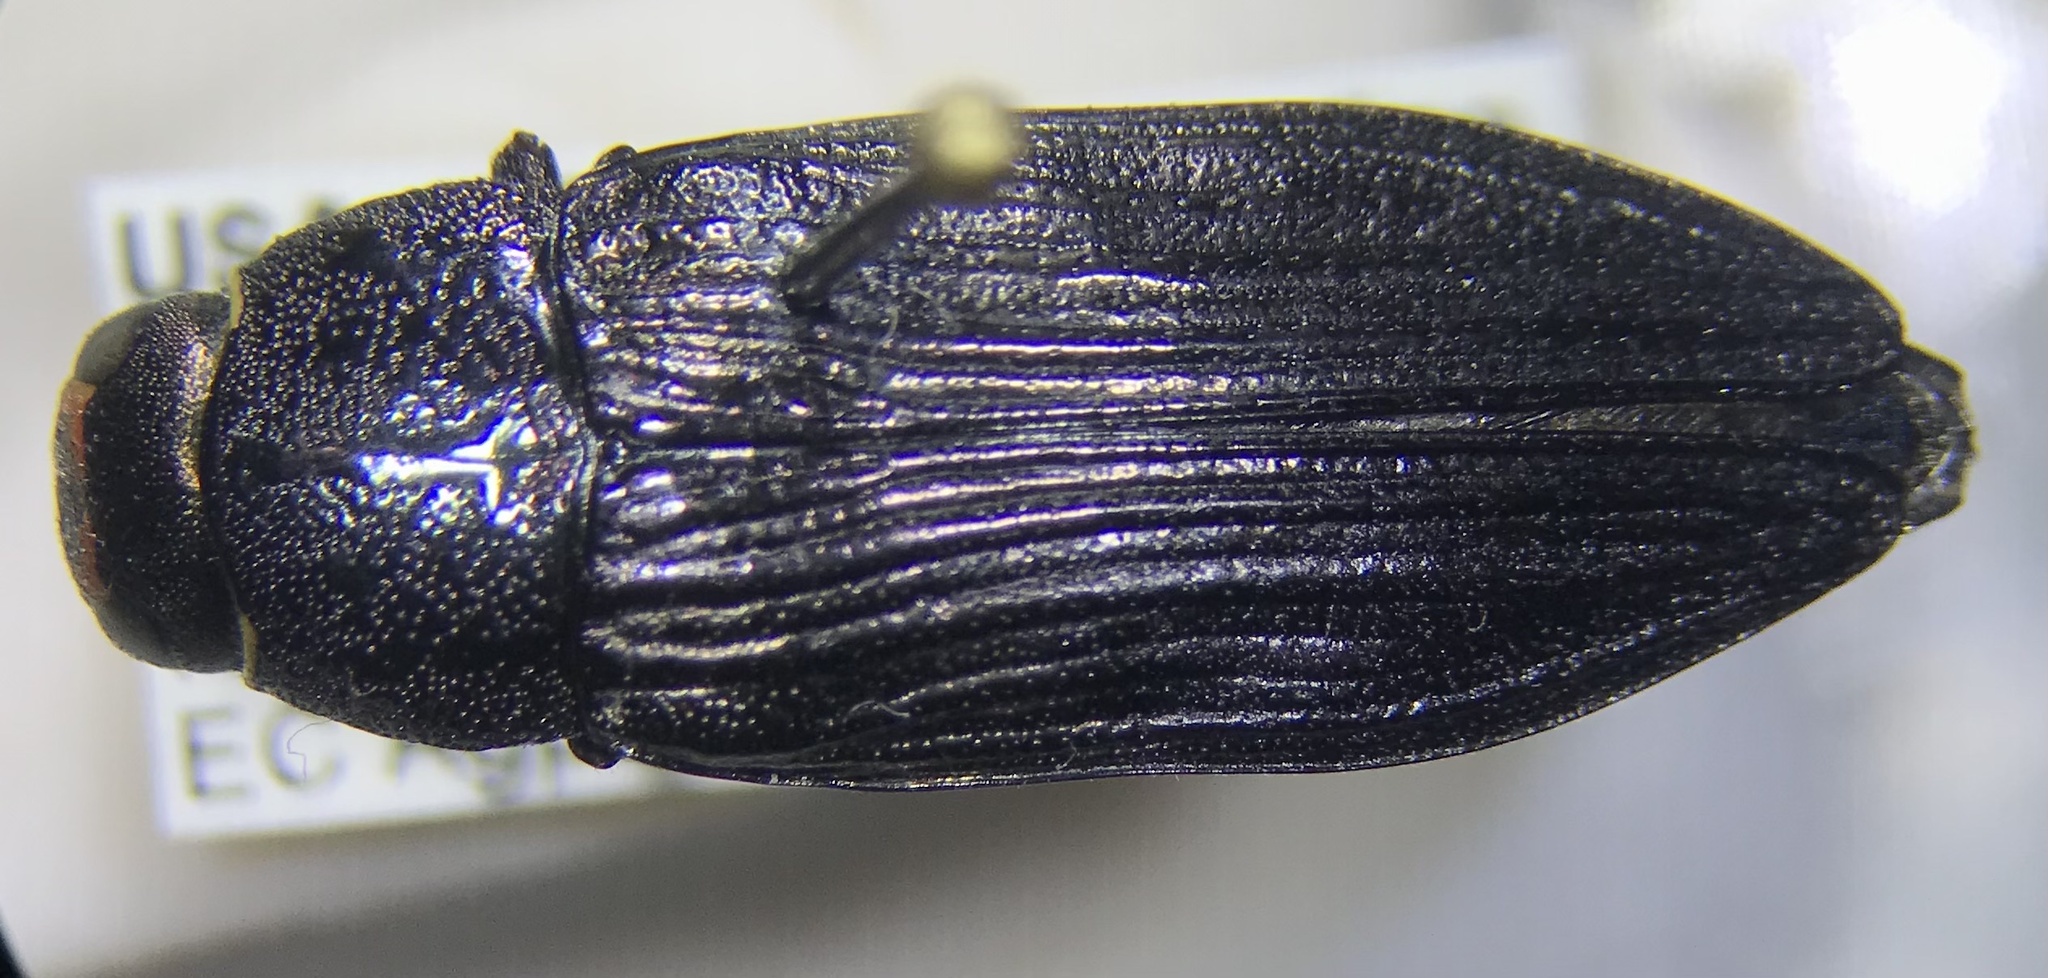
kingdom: Animalia
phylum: Arthropoda
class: Insecta
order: Coleoptera
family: Buprestidae
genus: Buprestis
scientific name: Buprestis lyrata
